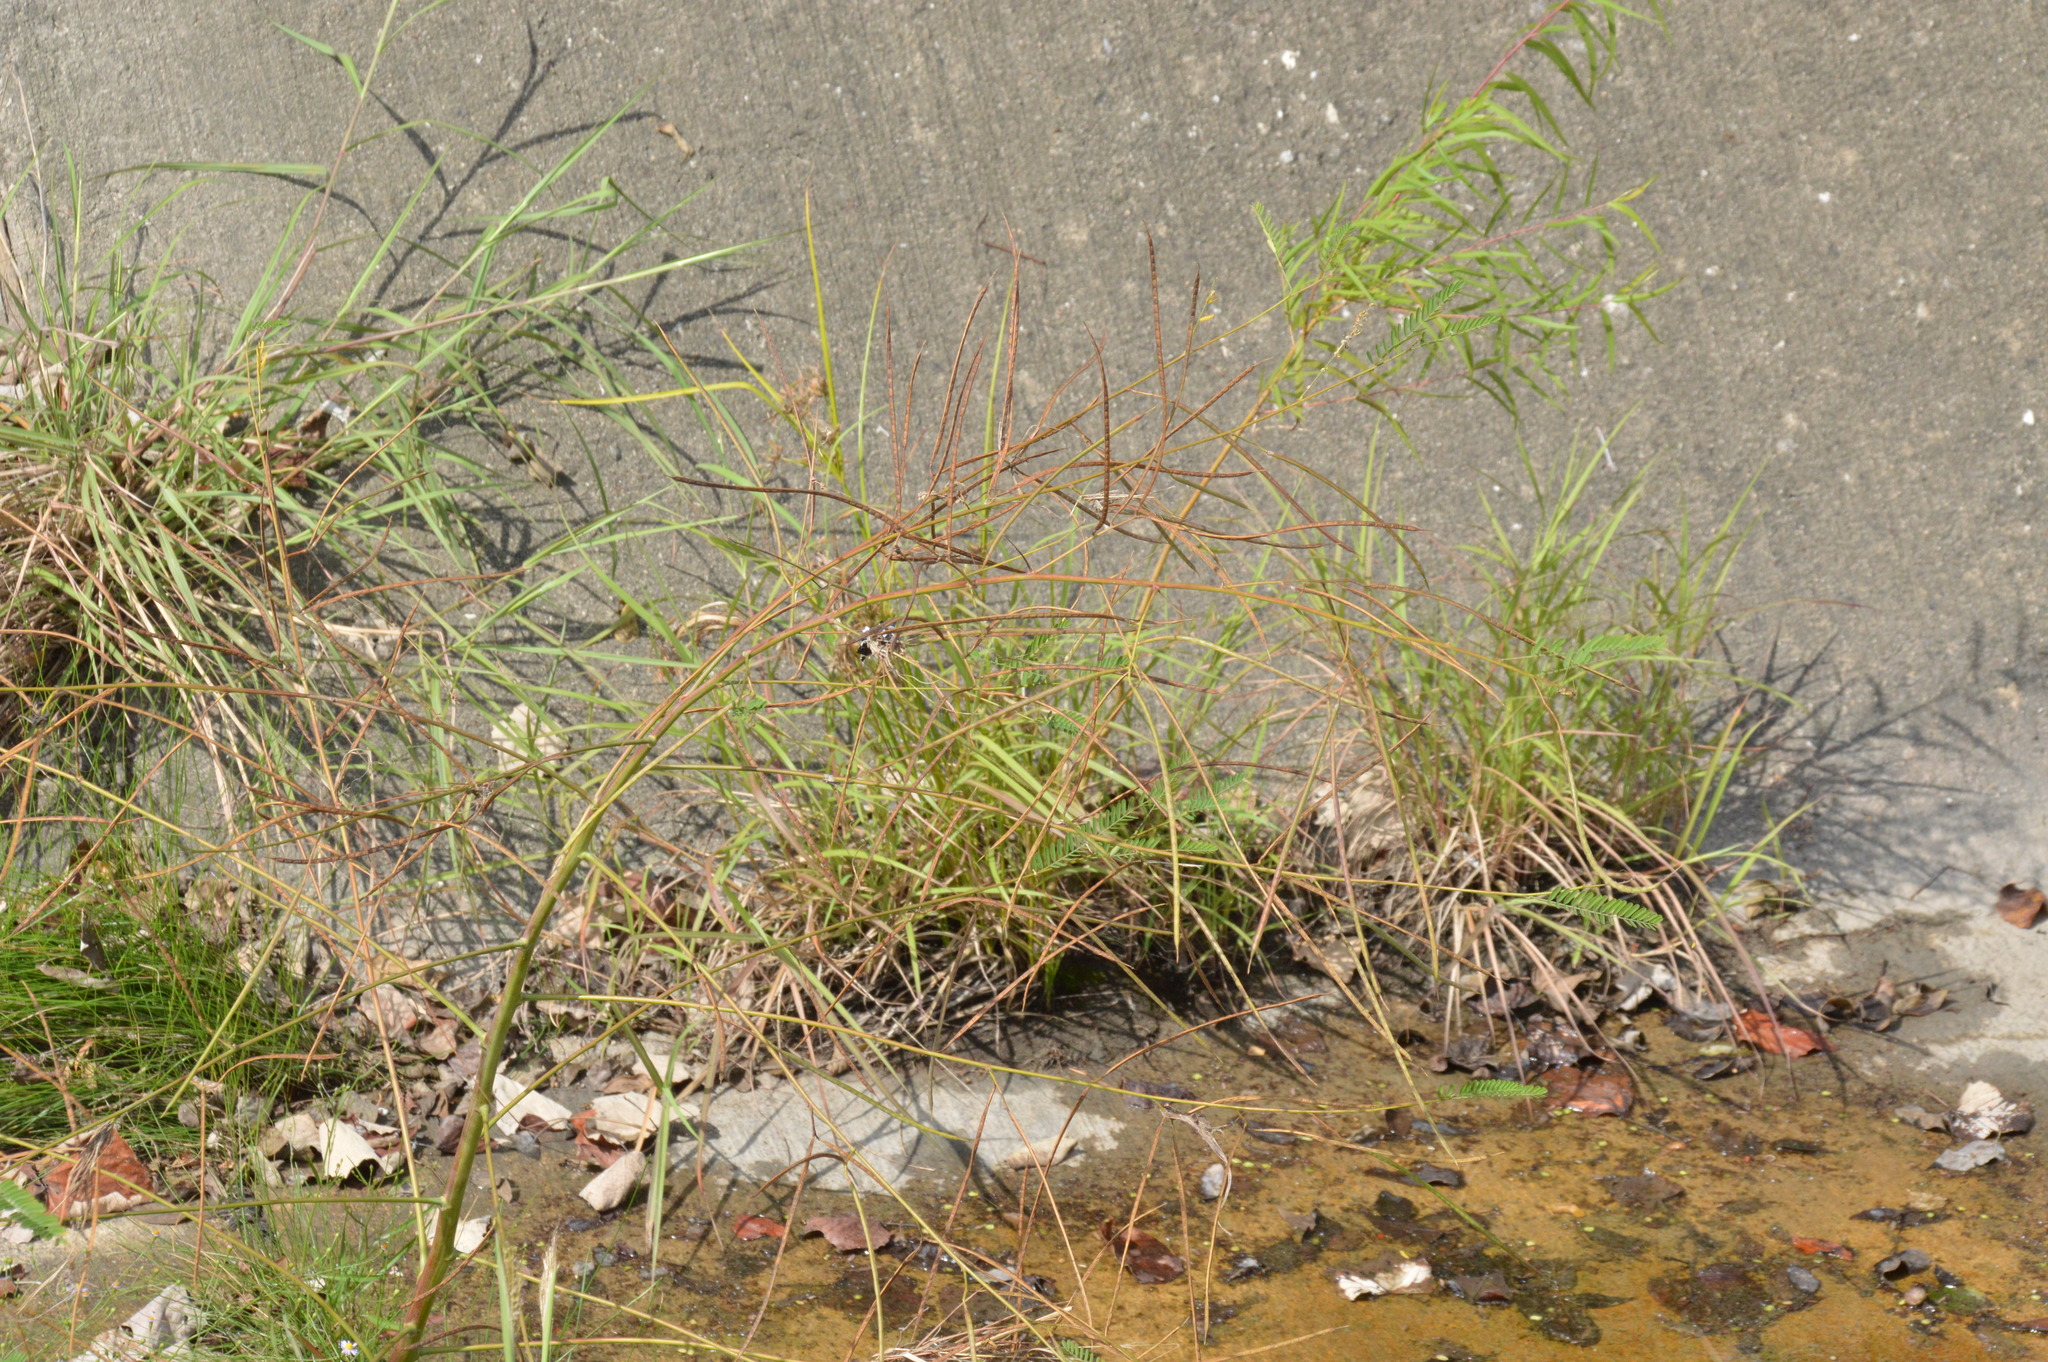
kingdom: Plantae
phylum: Tracheophyta
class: Magnoliopsida
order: Fabales
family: Fabaceae
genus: Sesbania
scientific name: Sesbania herbacea
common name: Bigpod sesbania
